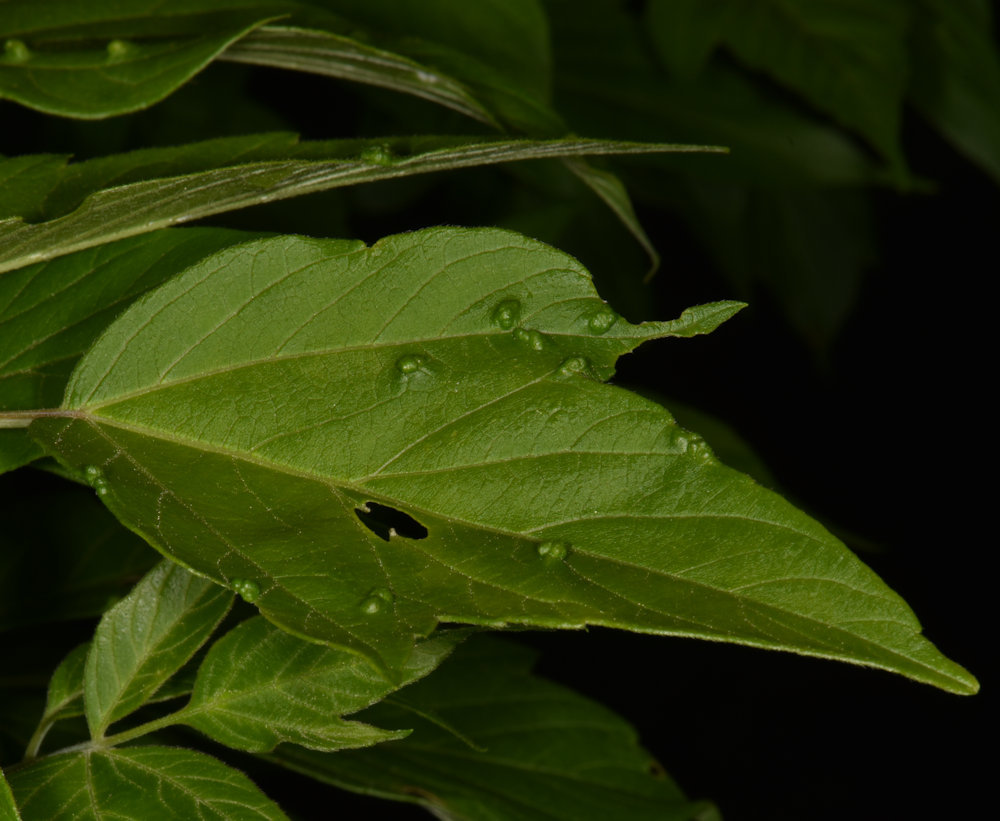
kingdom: Animalia
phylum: Arthropoda
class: Arachnida
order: Trombidiformes
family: Eriophyidae
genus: Aceria
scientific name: Aceria
